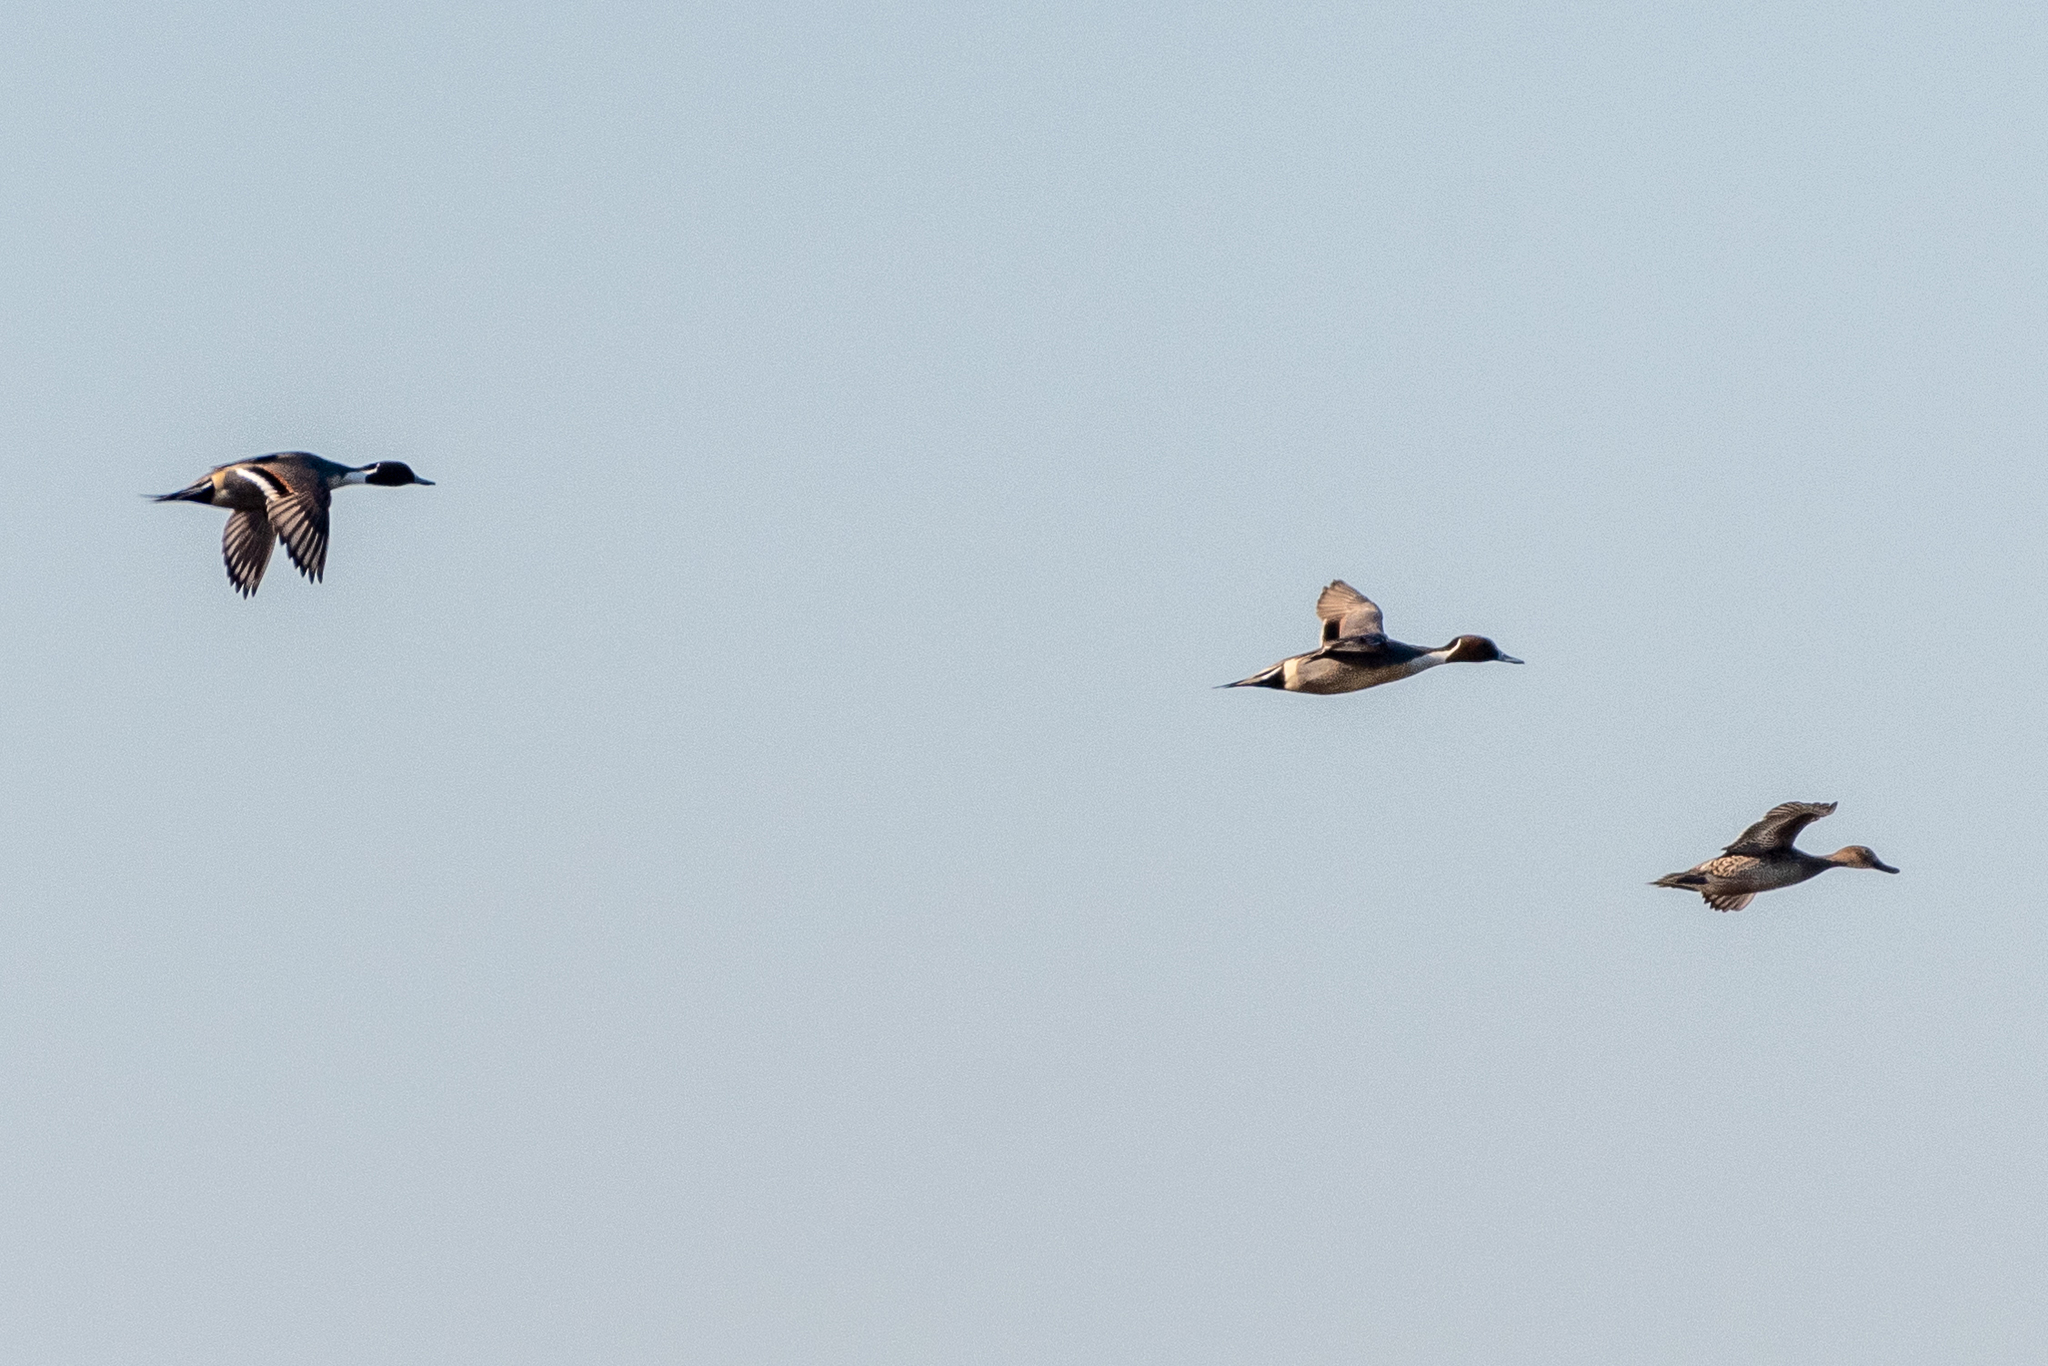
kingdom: Animalia
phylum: Chordata
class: Aves
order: Anseriformes
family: Anatidae
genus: Anas
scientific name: Anas acuta
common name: Northern pintail
